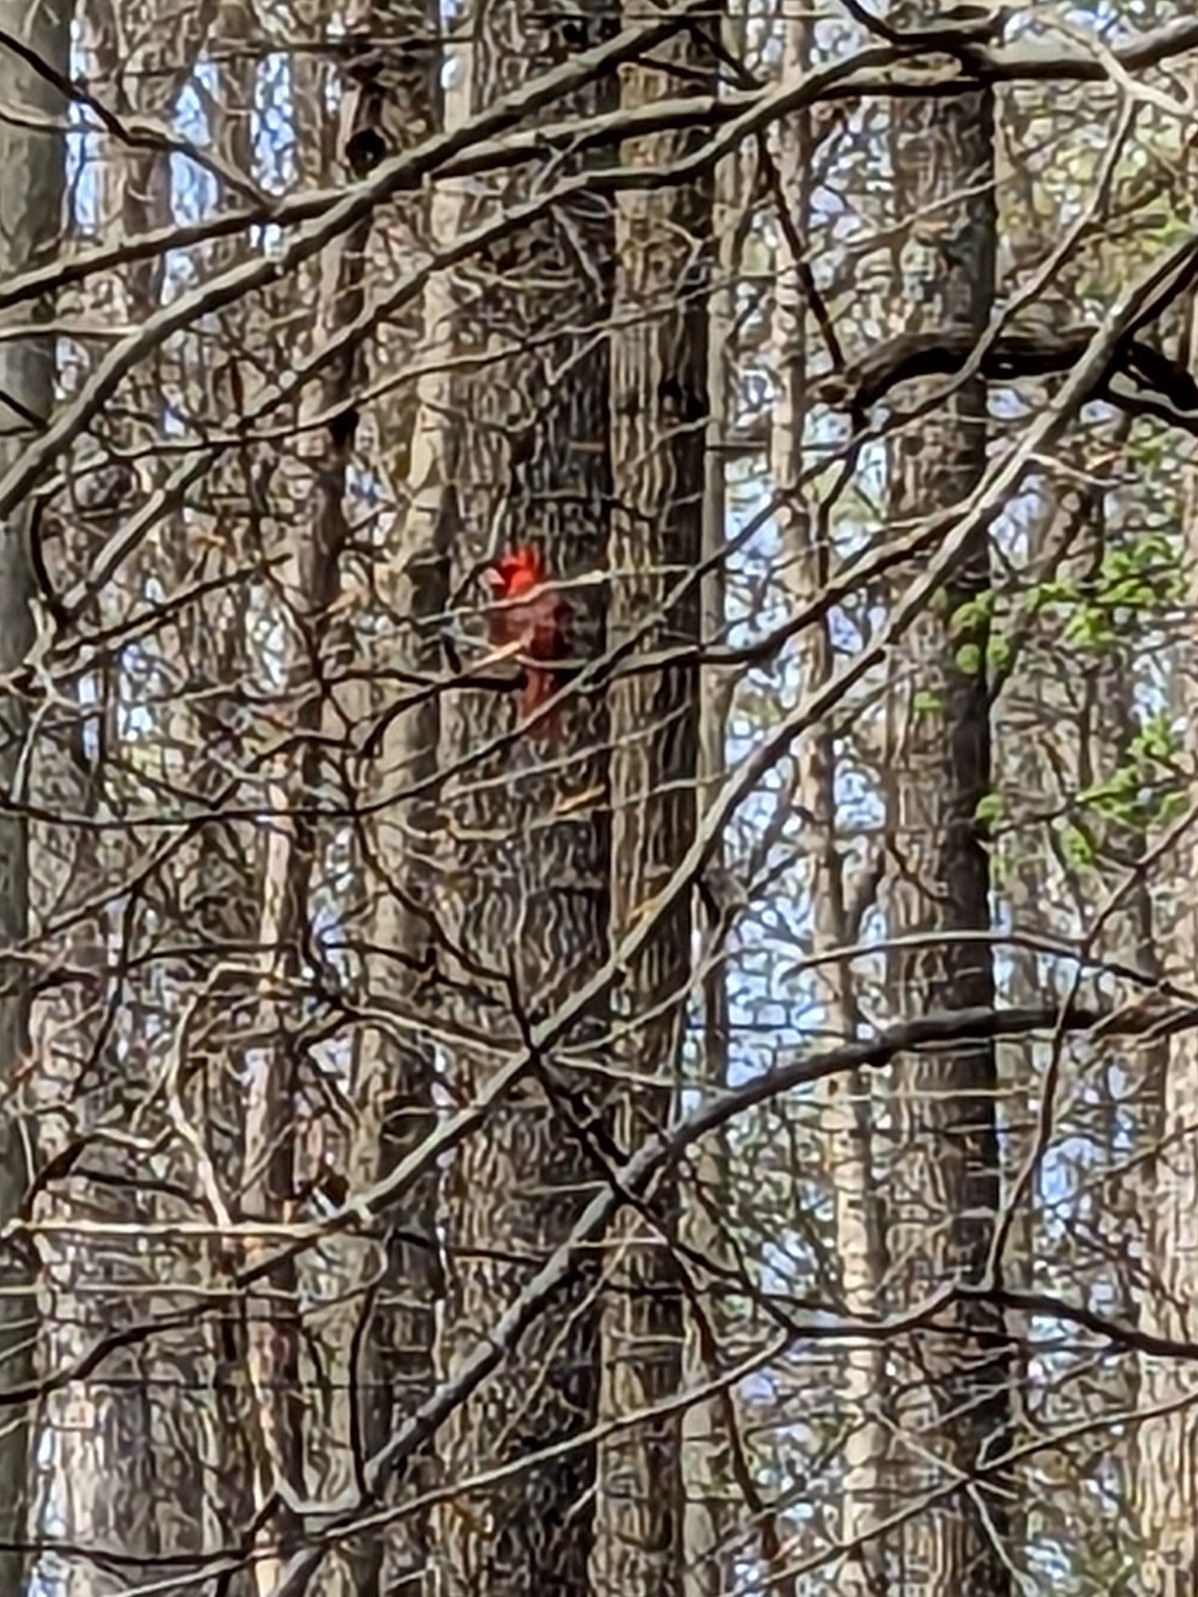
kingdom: Animalia
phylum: Chordata
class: Aves
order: Passeriformes
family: Cardinalidae
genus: Cardinalis
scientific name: Cardinalis cardinalis
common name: Northern cardinal
